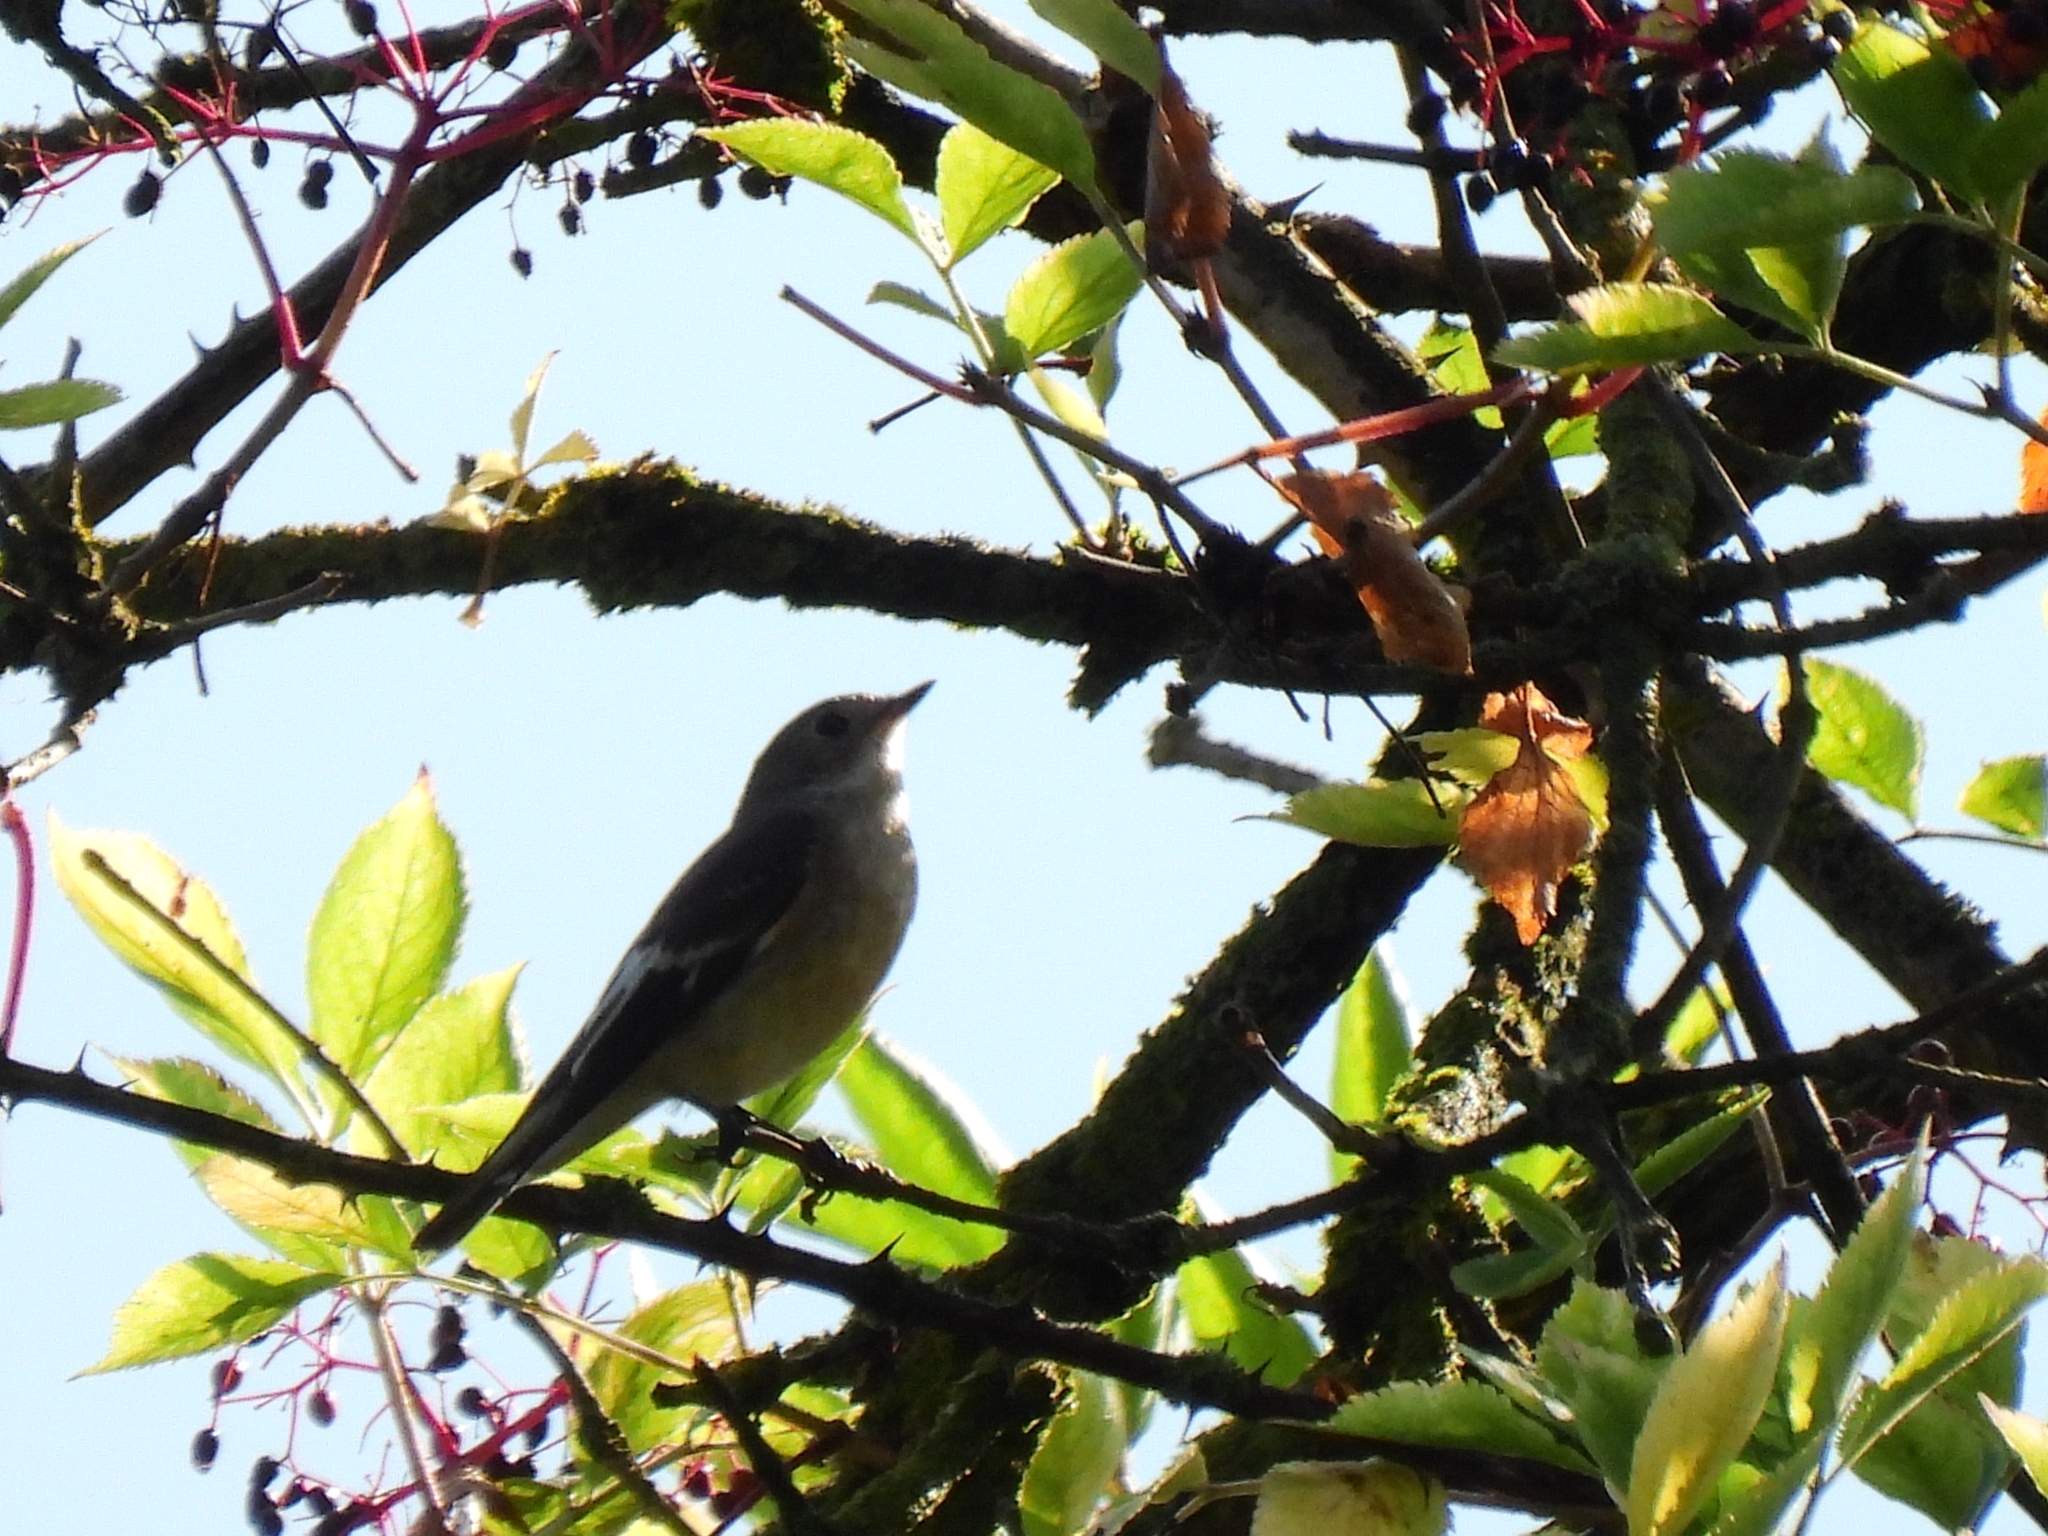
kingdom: Animalia
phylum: Chordata
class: Aves
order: Passeriformes
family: Muscicapidae
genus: Ficedula
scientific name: Ficedula hypoleuca
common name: European pied flycatcher
